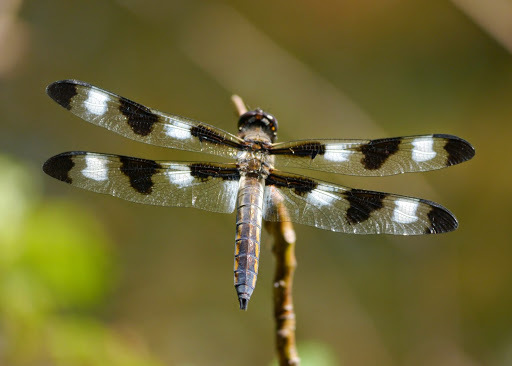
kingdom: Animalia
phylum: Arthropoda
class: Insecta
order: Odonata
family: Libellulidae
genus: Libellula
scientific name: Libellula pulchella
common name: Twelve-spotted skimmer
